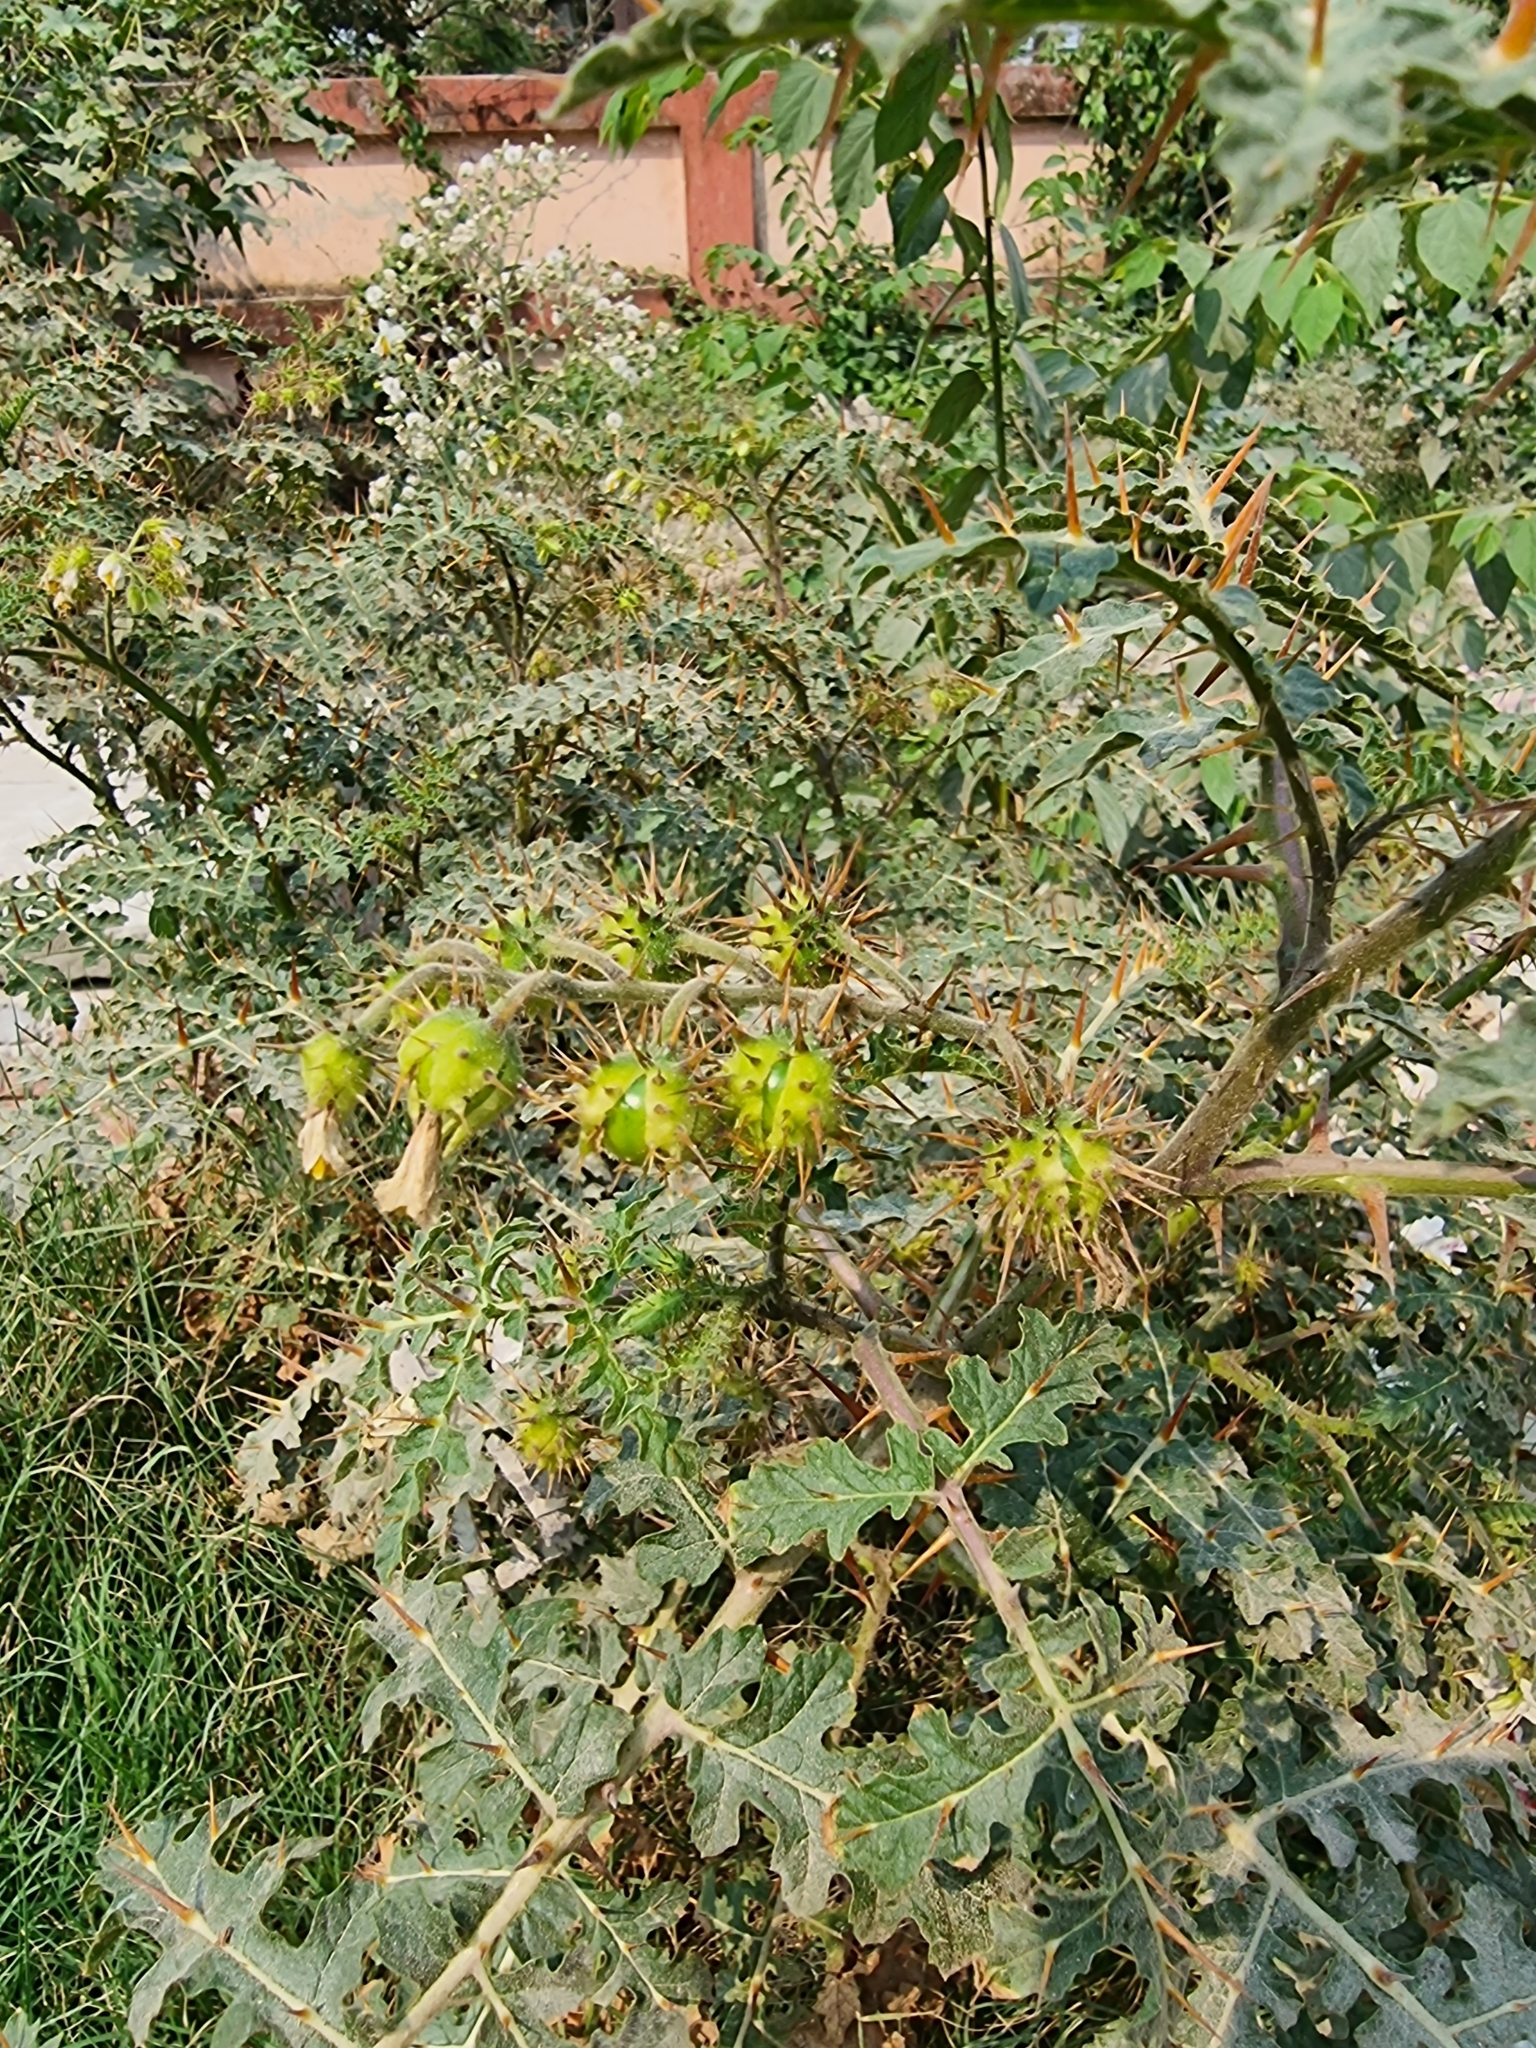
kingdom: Plantae
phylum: Tracheophyta
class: Magnoliopsida
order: Solanales
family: Solanaceae
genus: Solanum
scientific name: Solanum sisymbriifolium
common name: Red buffalo-bur
